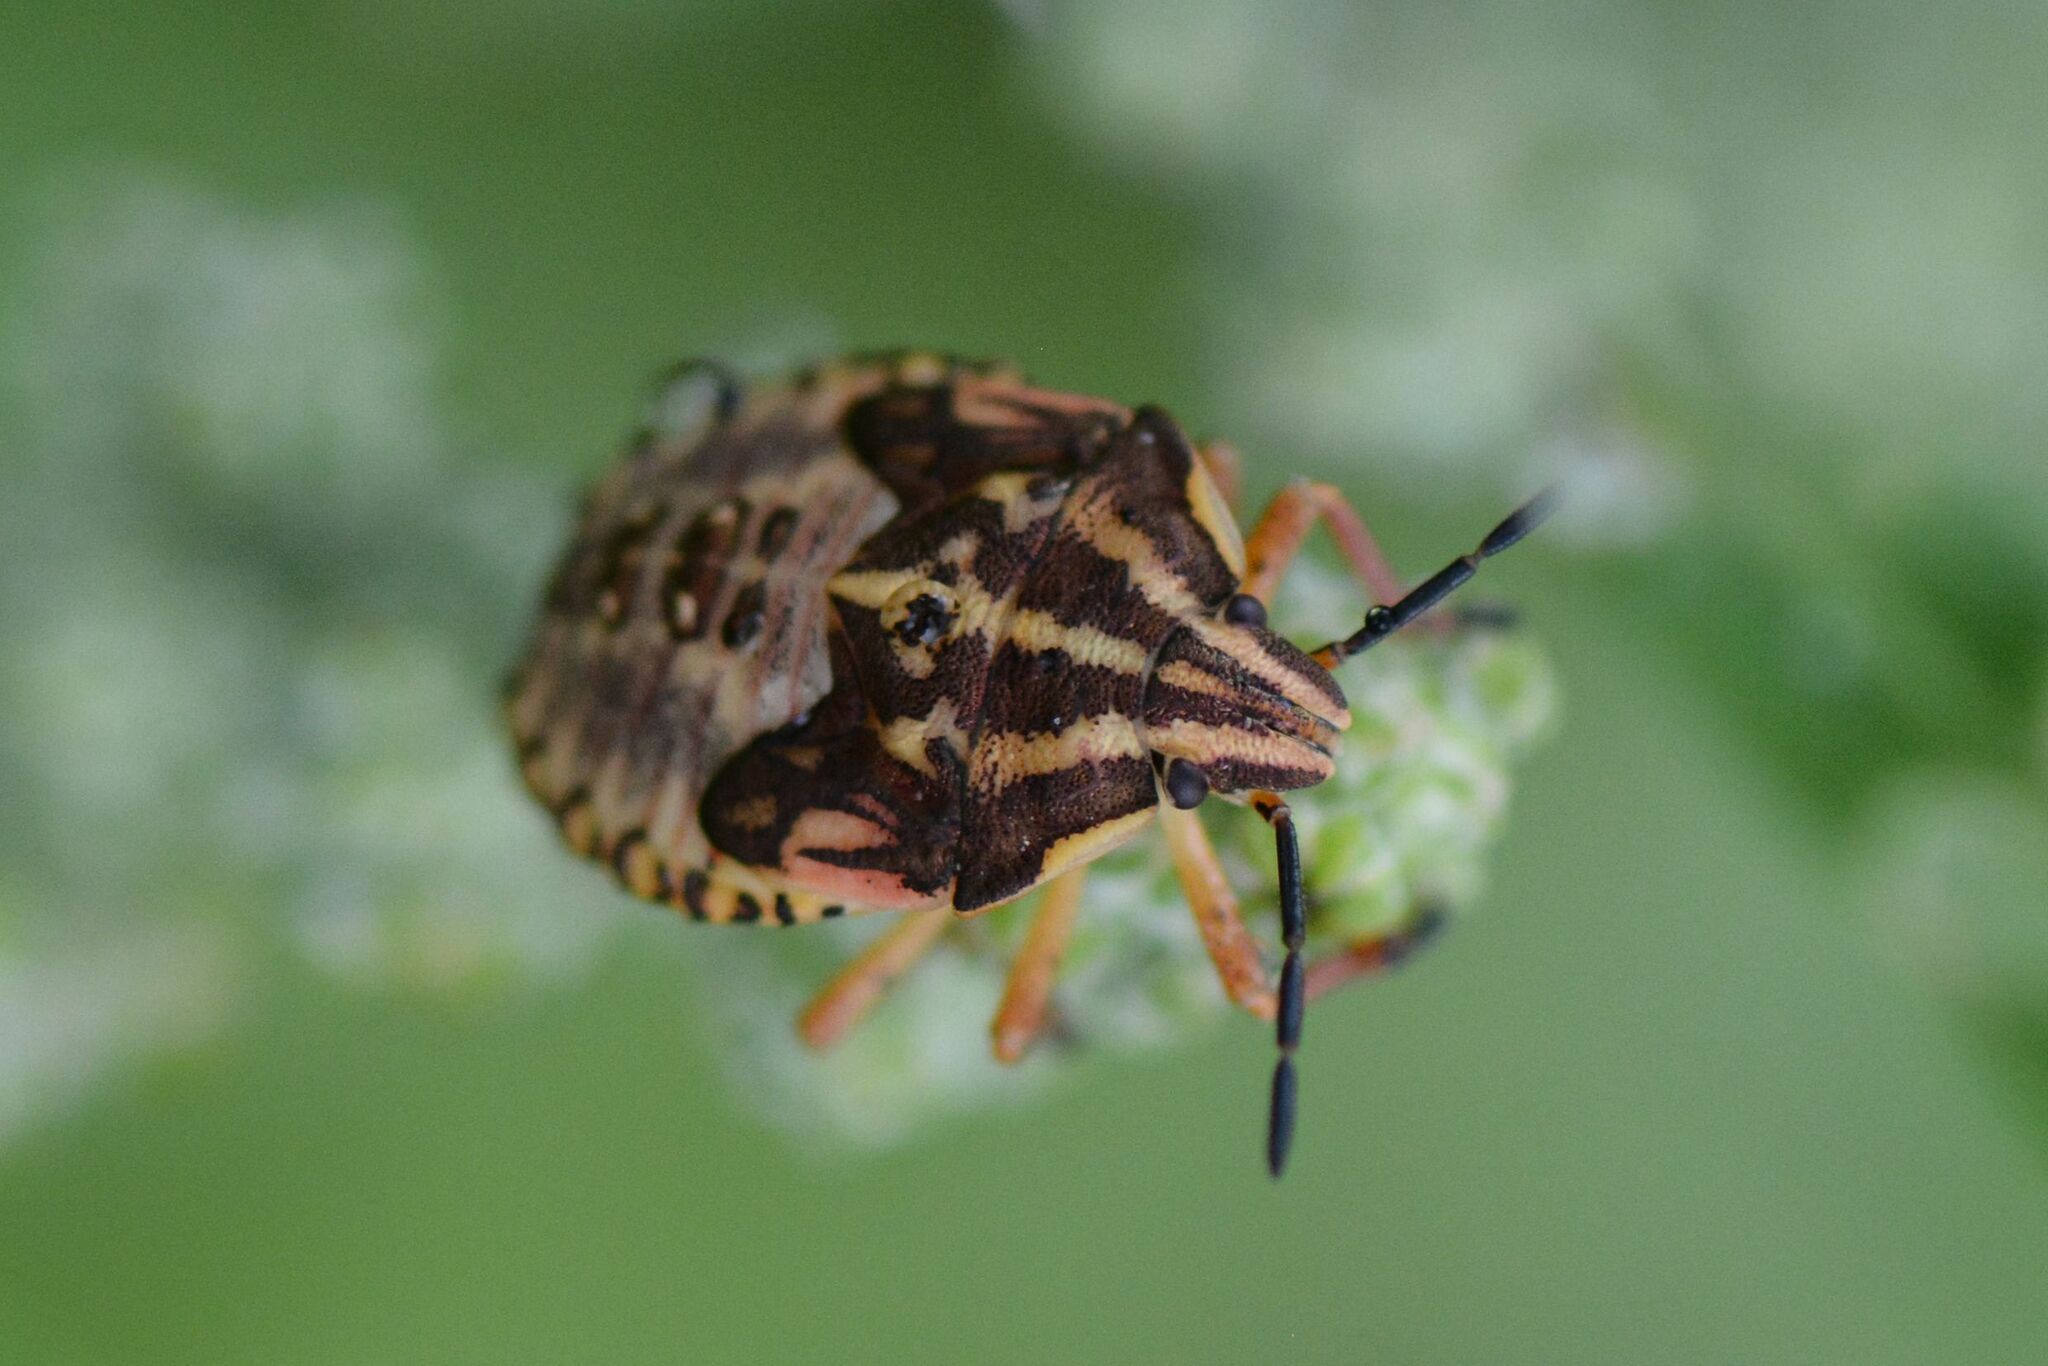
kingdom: Animalia
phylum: Arthropoda
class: Insecta
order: Hemiptera
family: Pentatomidae
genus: Carpocoris
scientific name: Carpocoris purpureipennis
